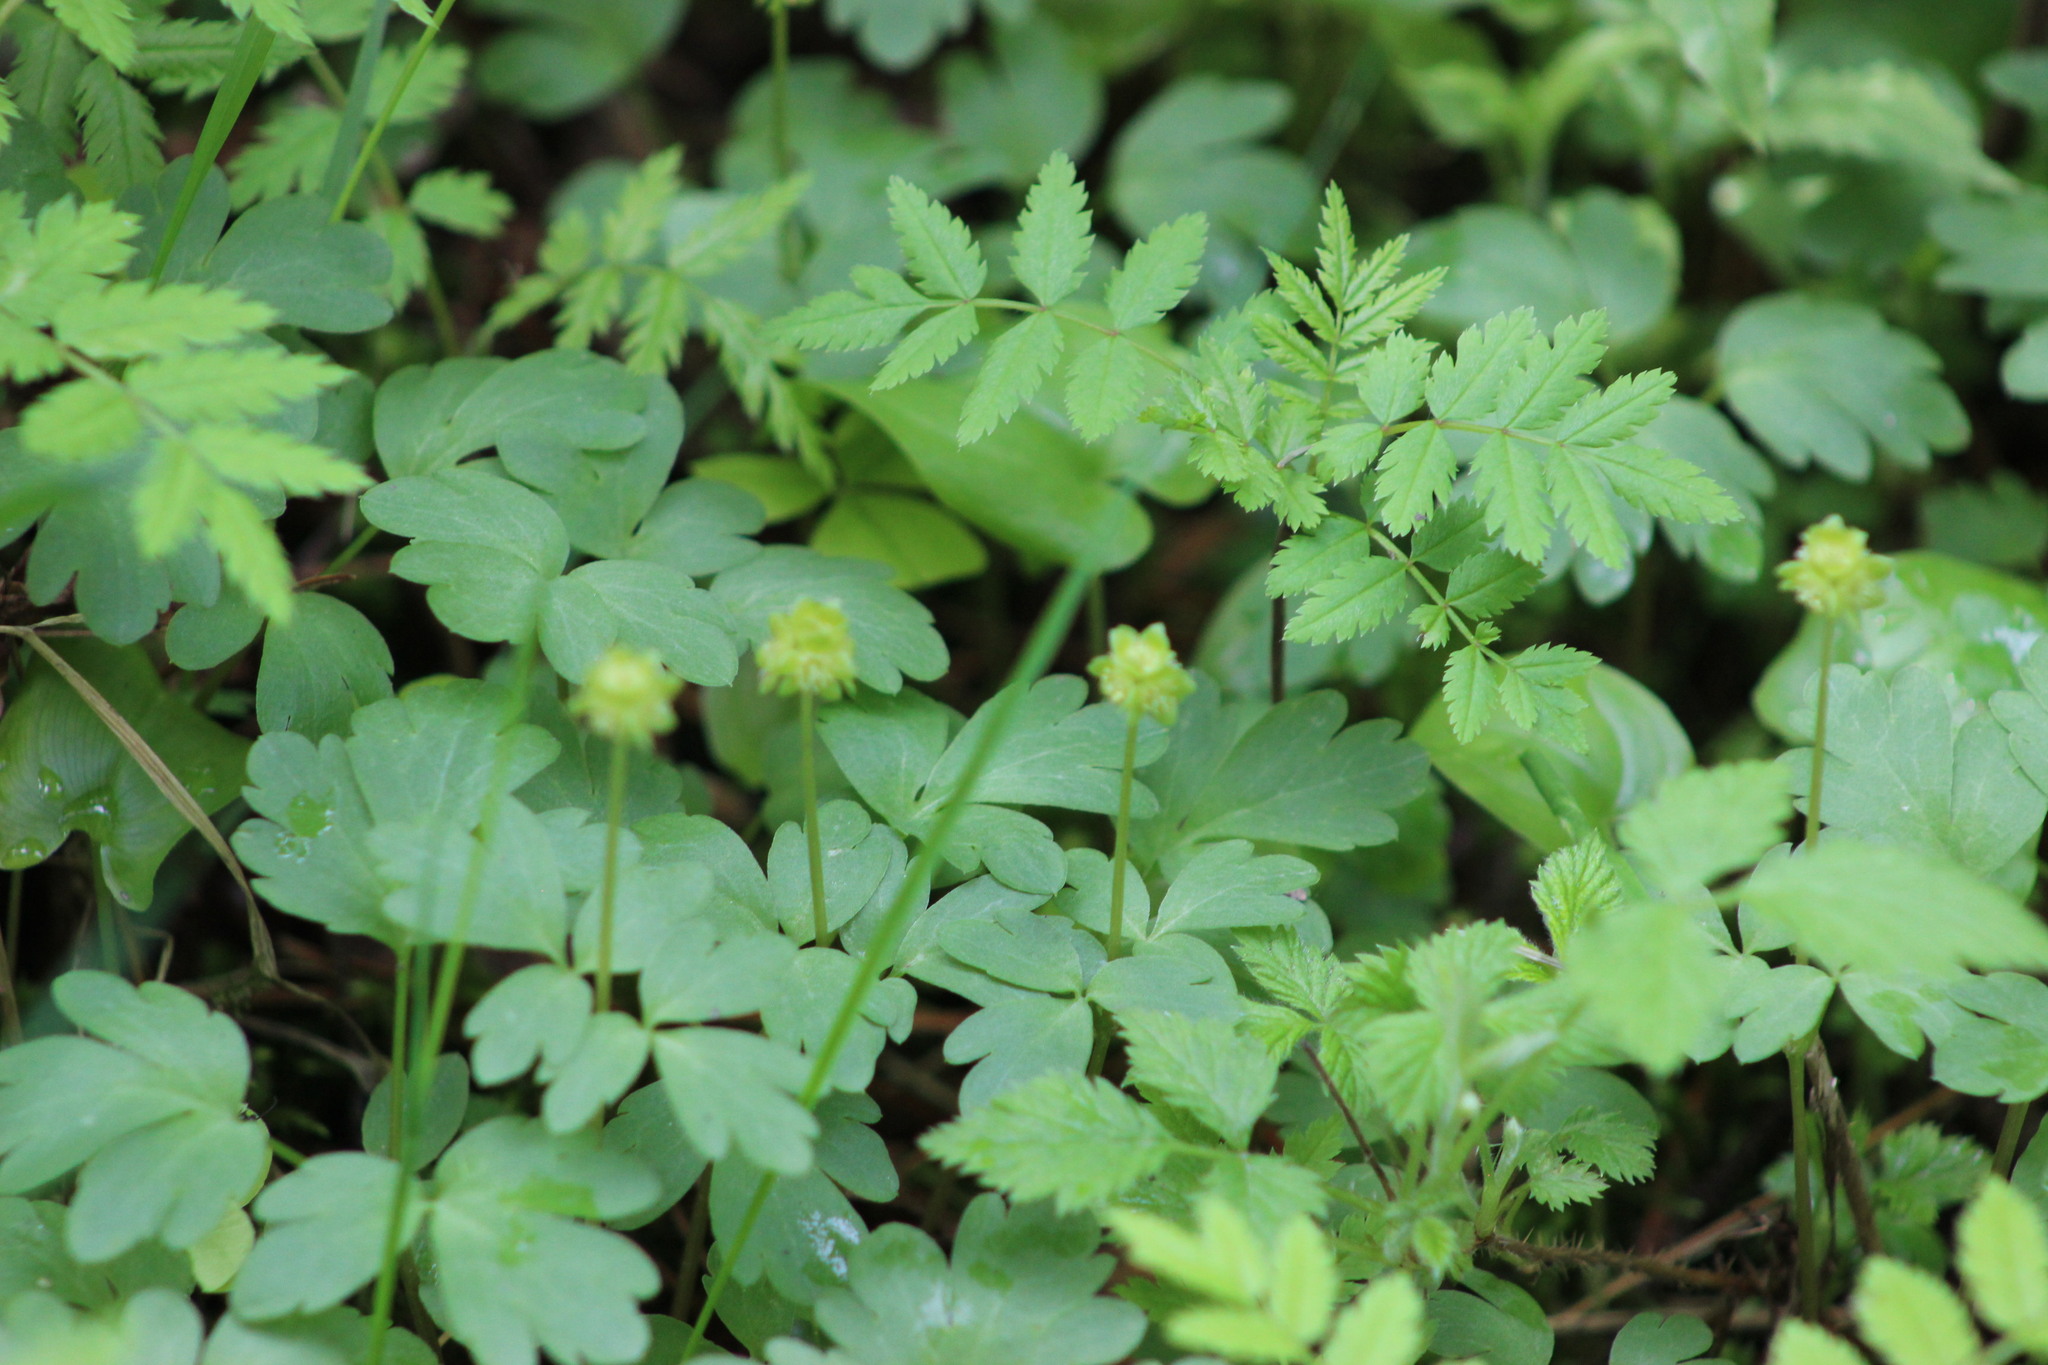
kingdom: Plantae
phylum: Tracheophyta
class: Magnoliopsida
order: Dipsacales
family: Viburnaceae
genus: Adoxa
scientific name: Adoxa moschatellina
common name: Moschatel
